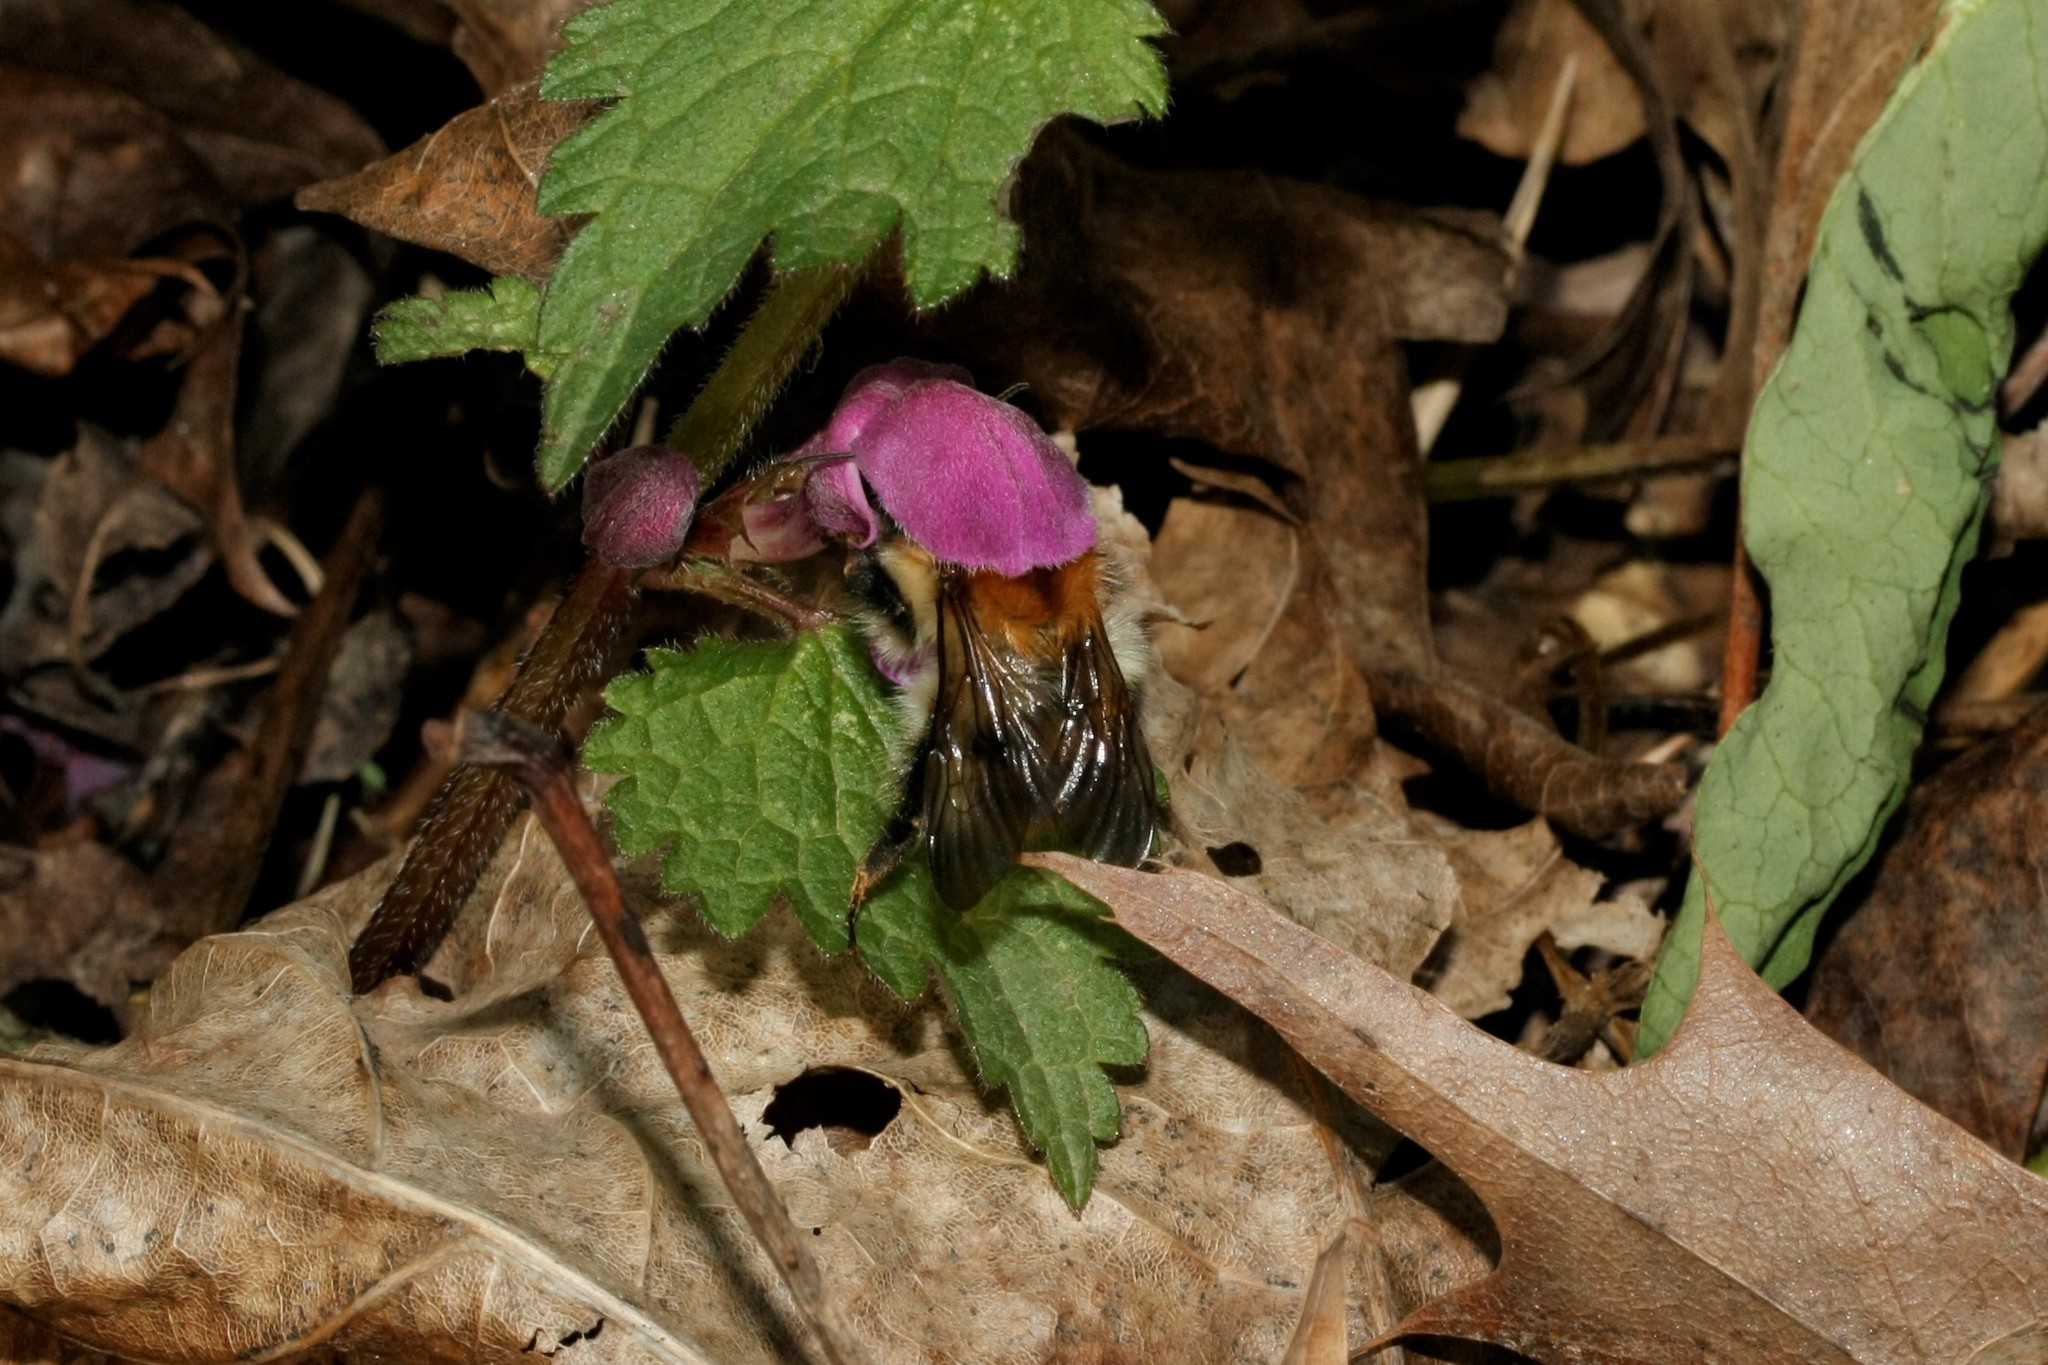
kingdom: Animalia
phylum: Arthropoda
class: Insecta
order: Hymenoptera
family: Apidae
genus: Bombus
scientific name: Bombus pascuorum
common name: Common carder bee
